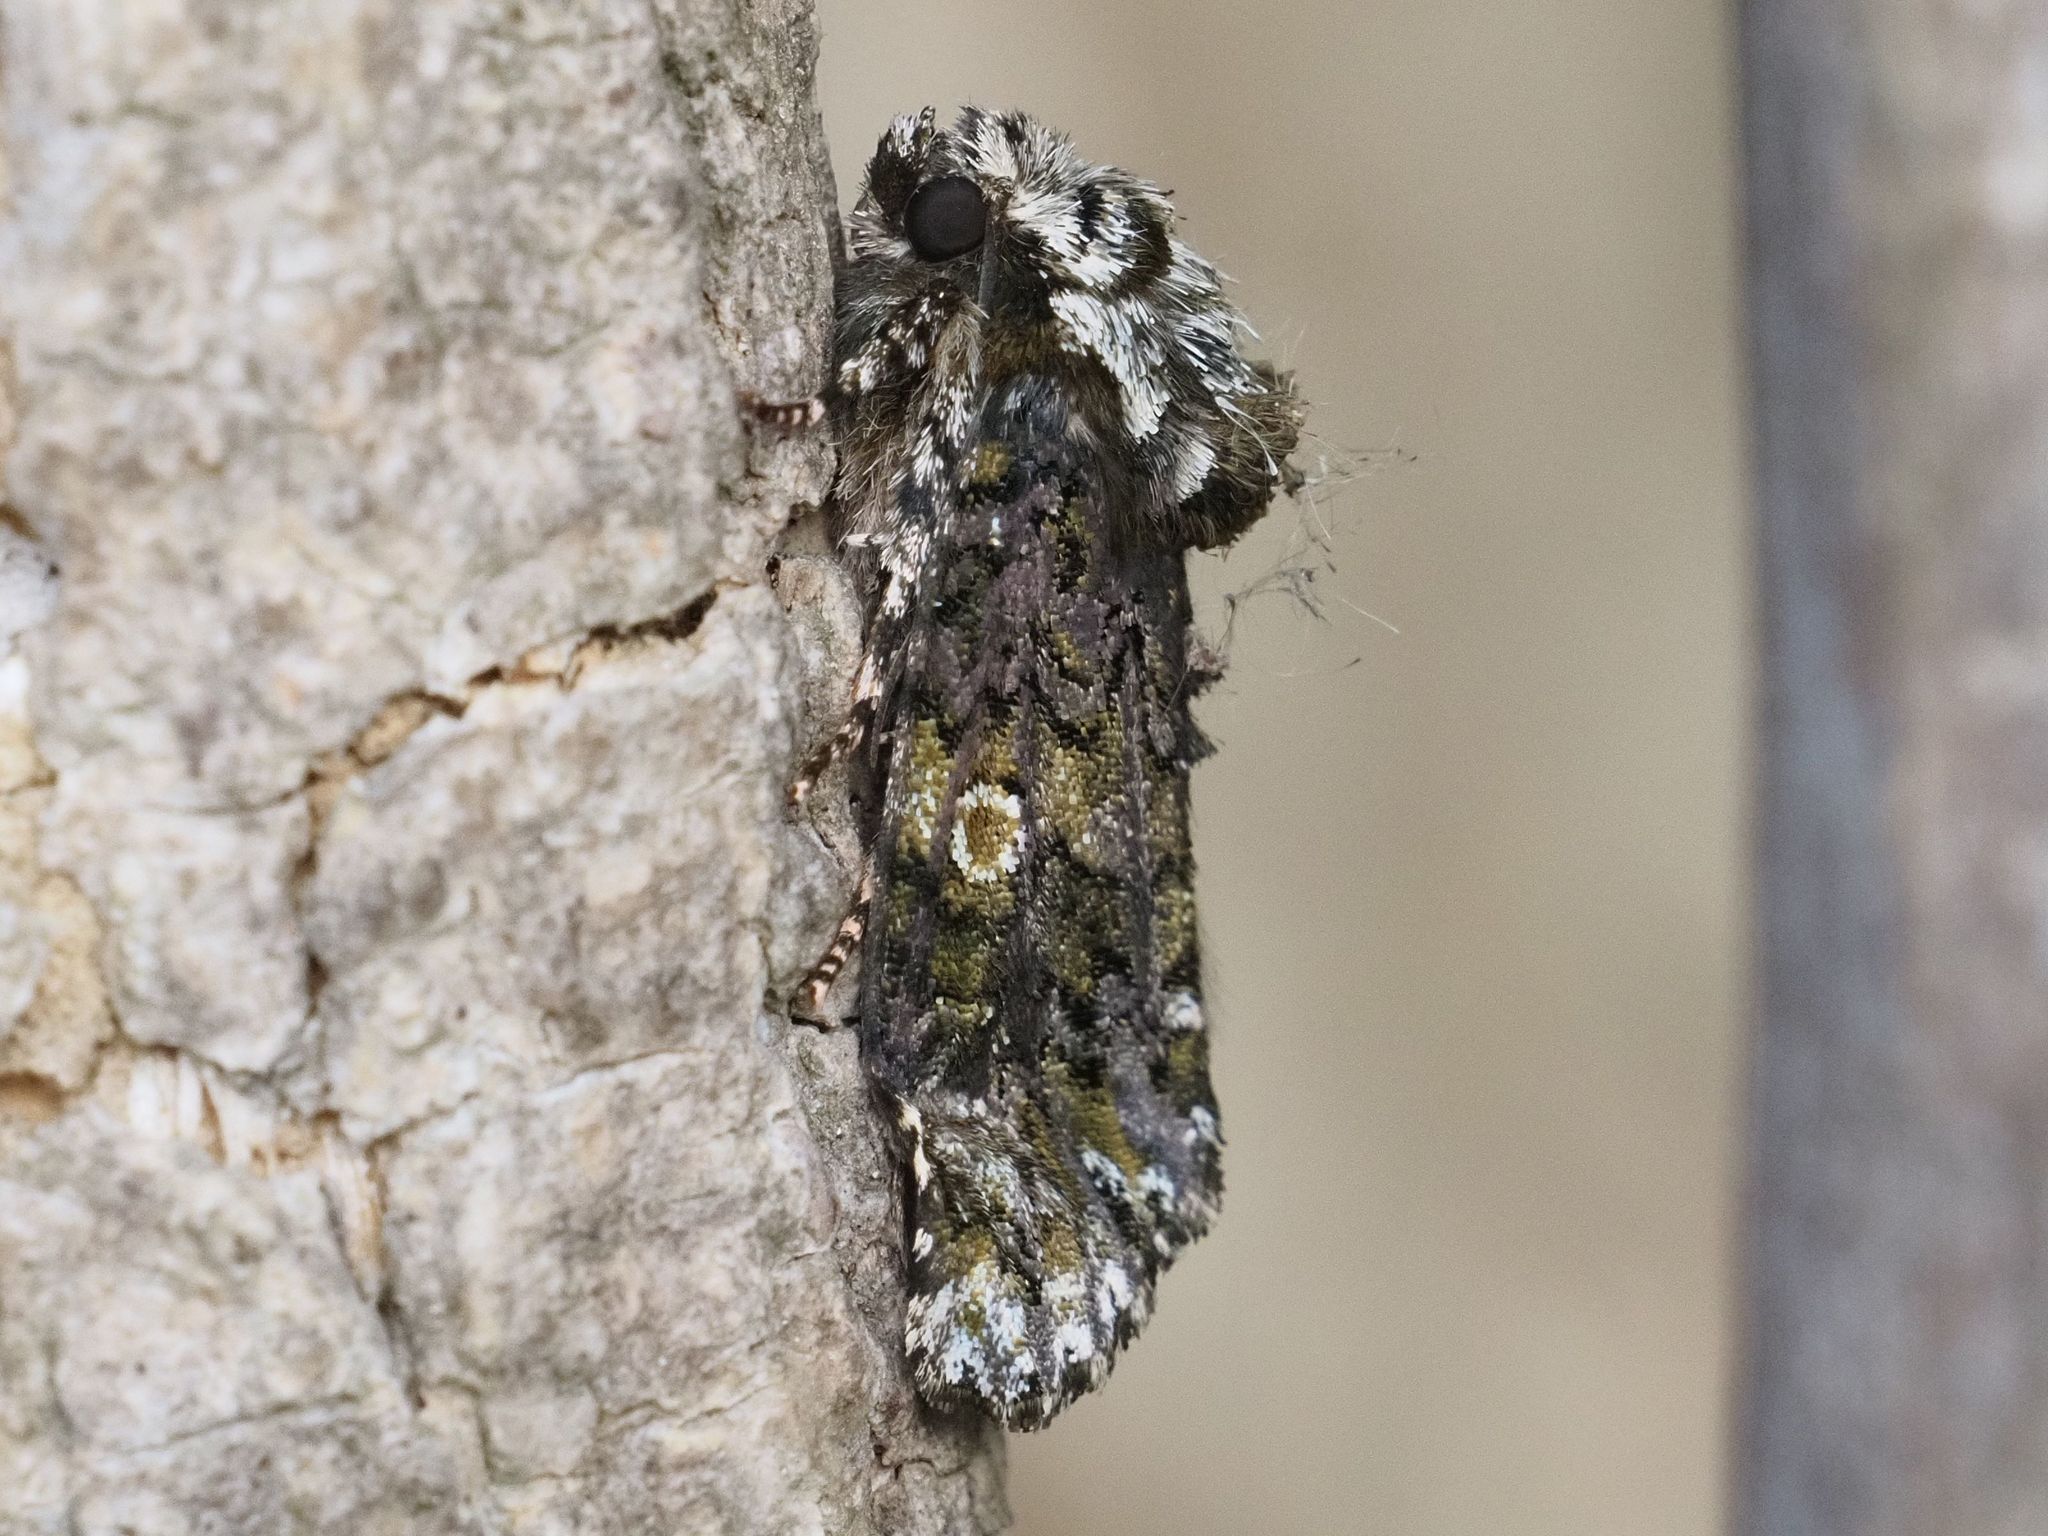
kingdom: Animalia
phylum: Arthropoda
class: Insecta
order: Lepidoptera
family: Noctuidae
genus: Craniophora
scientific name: Craniophora ligustri
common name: Coronet
